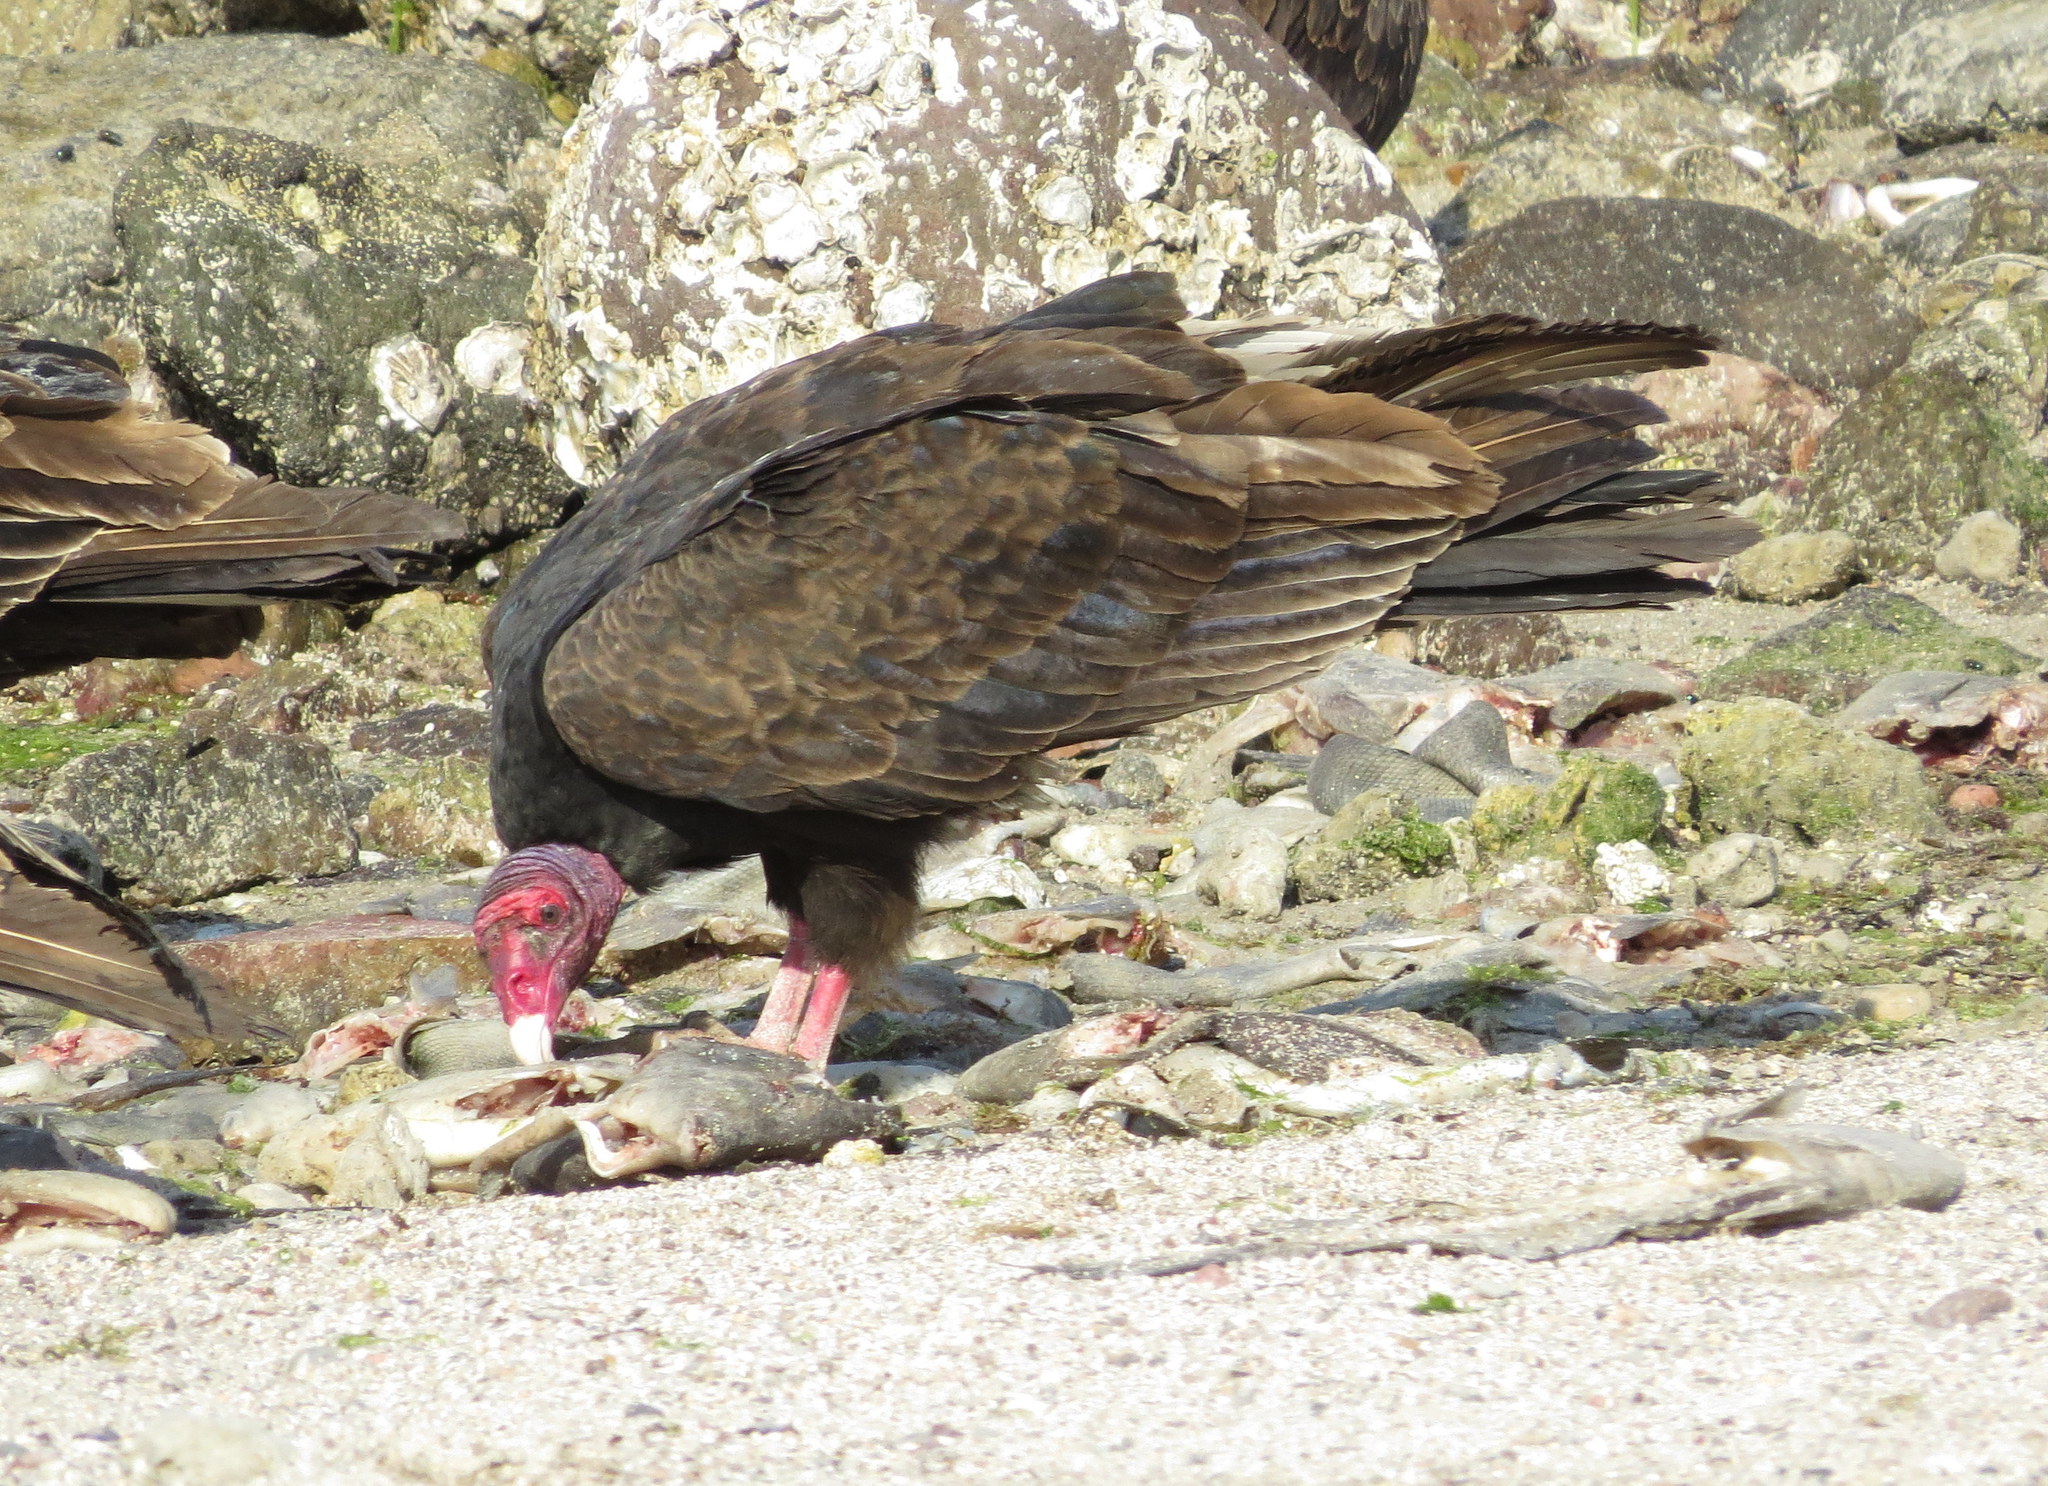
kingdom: Animalia
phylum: Chordata
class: Aves
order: Accipitriformes
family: Cathartidae
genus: Cathartes
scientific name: Cathartes aura
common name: Turkey vulture
